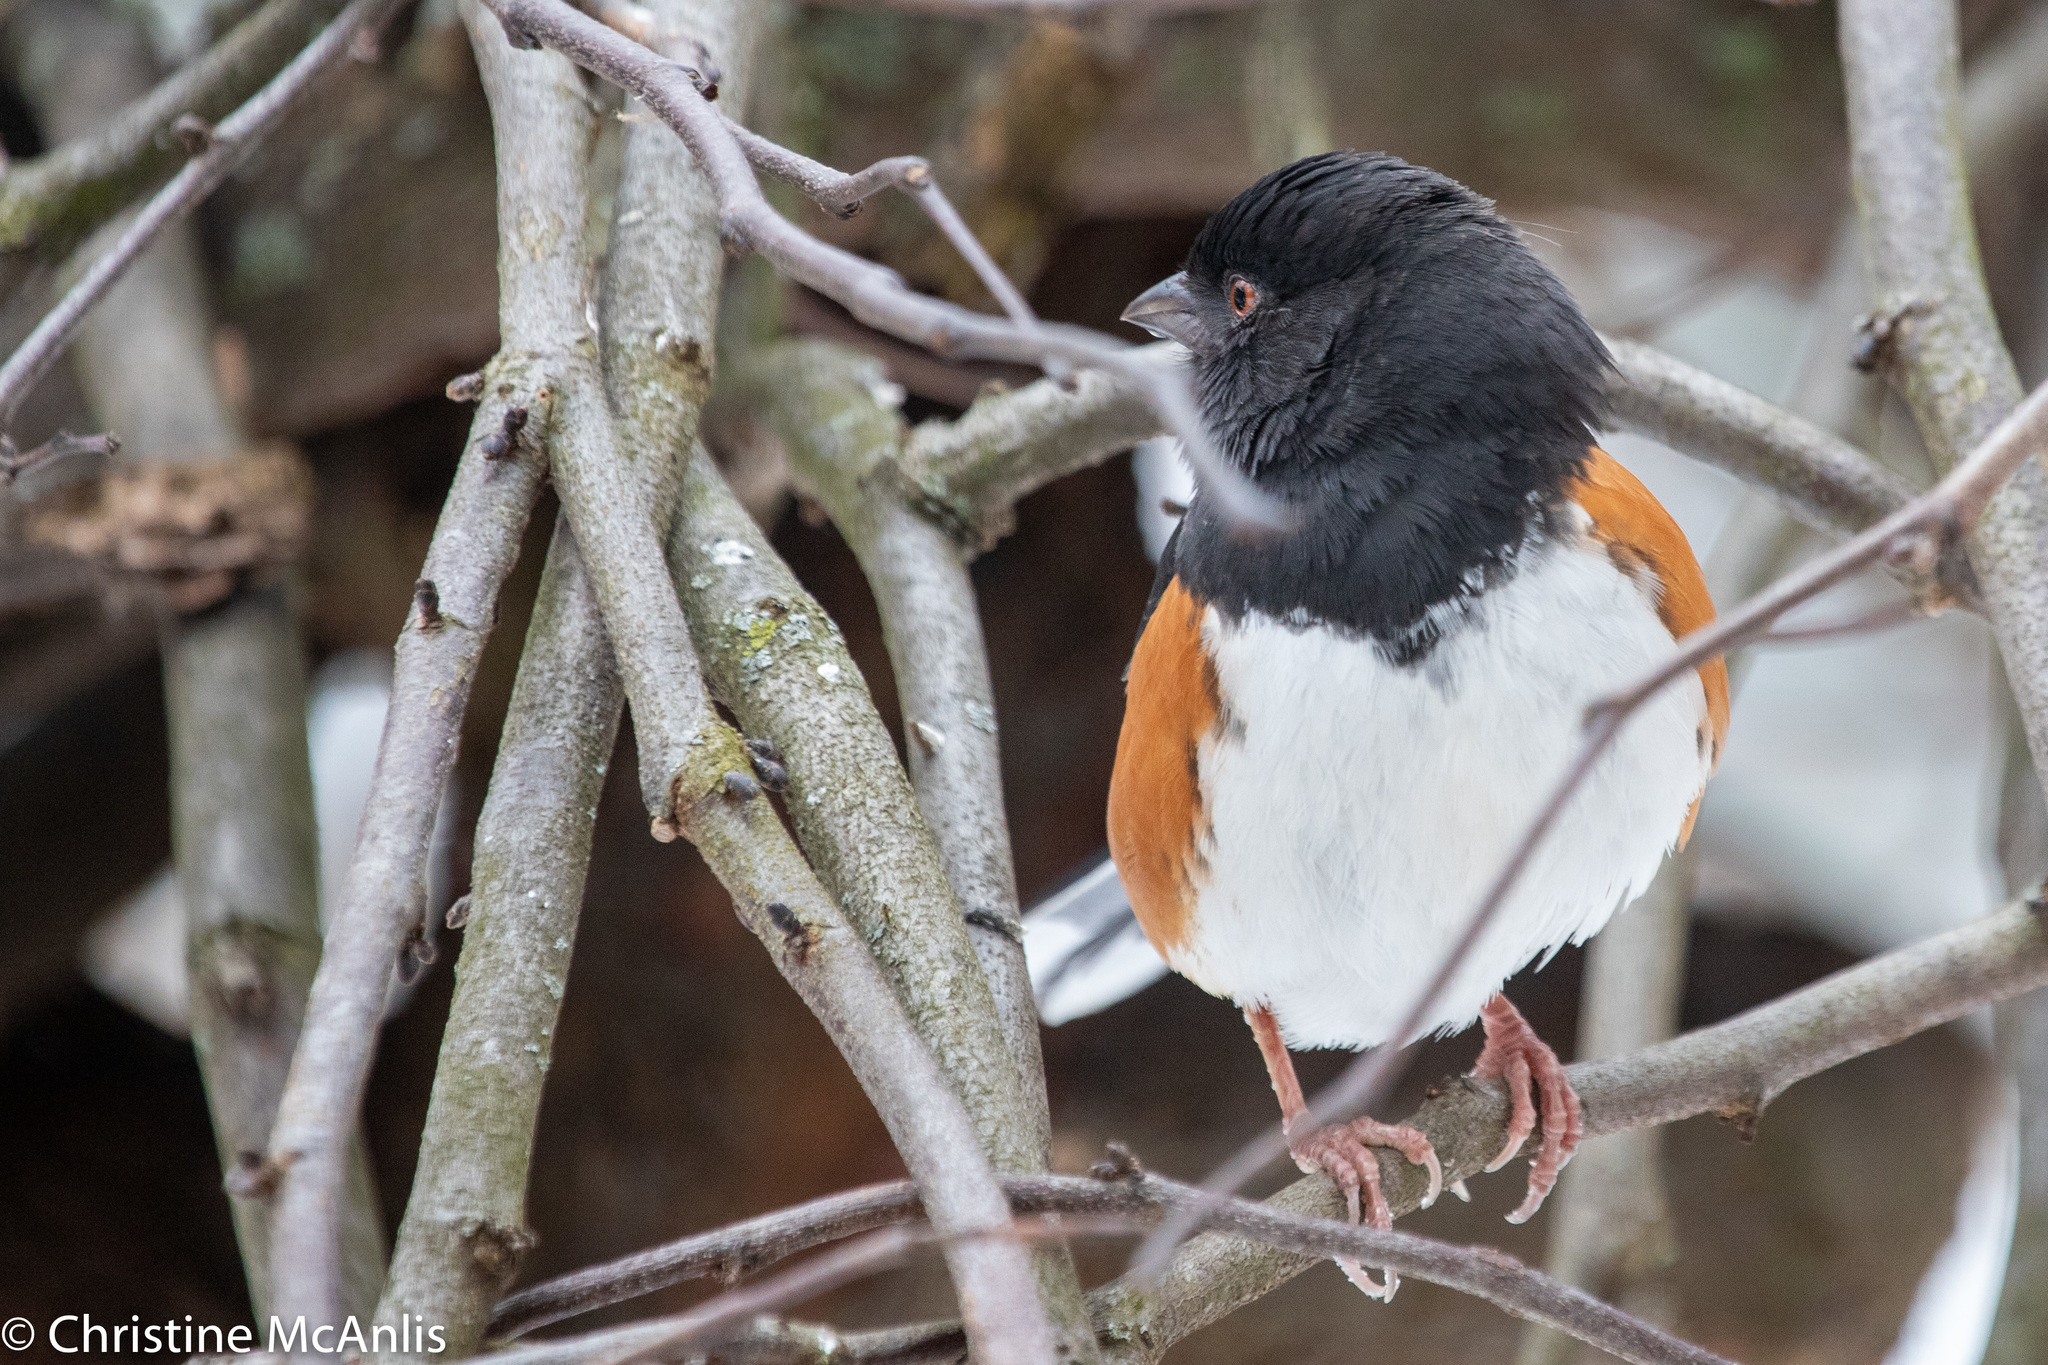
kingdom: Animalia
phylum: Chordata
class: Aves
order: Passeriformes
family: Passerellidae
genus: Pipilo
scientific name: Pipilo erythrophthalmus
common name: Eastern towhee
